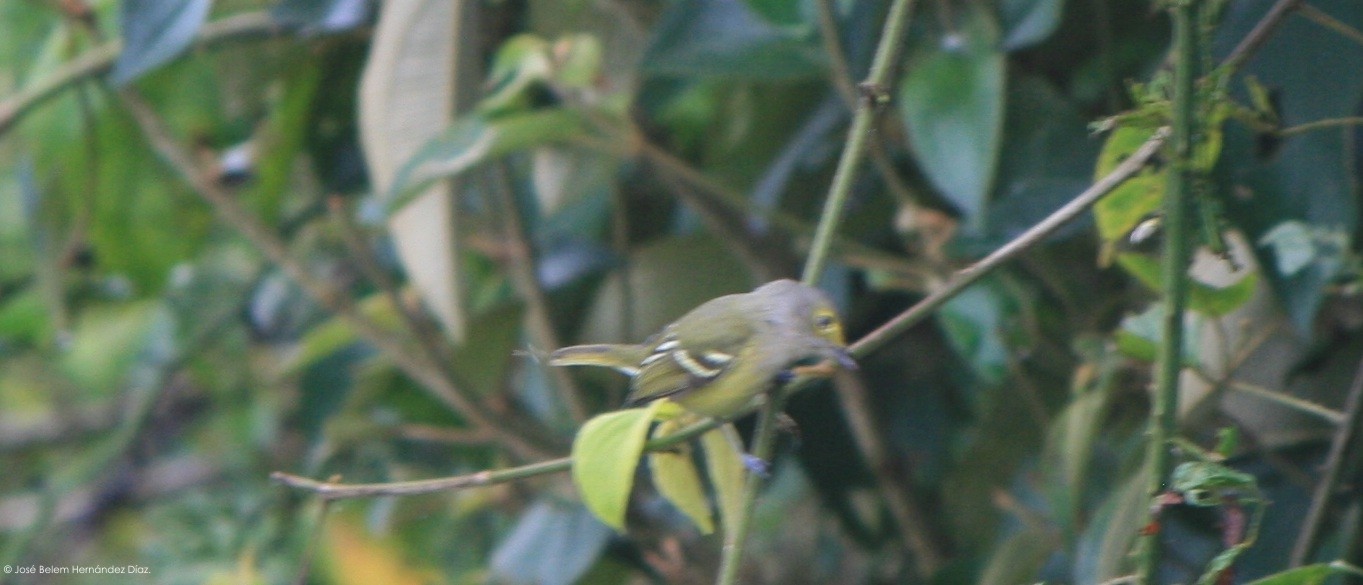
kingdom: Animalia
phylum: Chordata
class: Aves
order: Passeriformes
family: Vireonidae
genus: Vireo
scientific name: Vireo griseus
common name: White-eyed vireo
